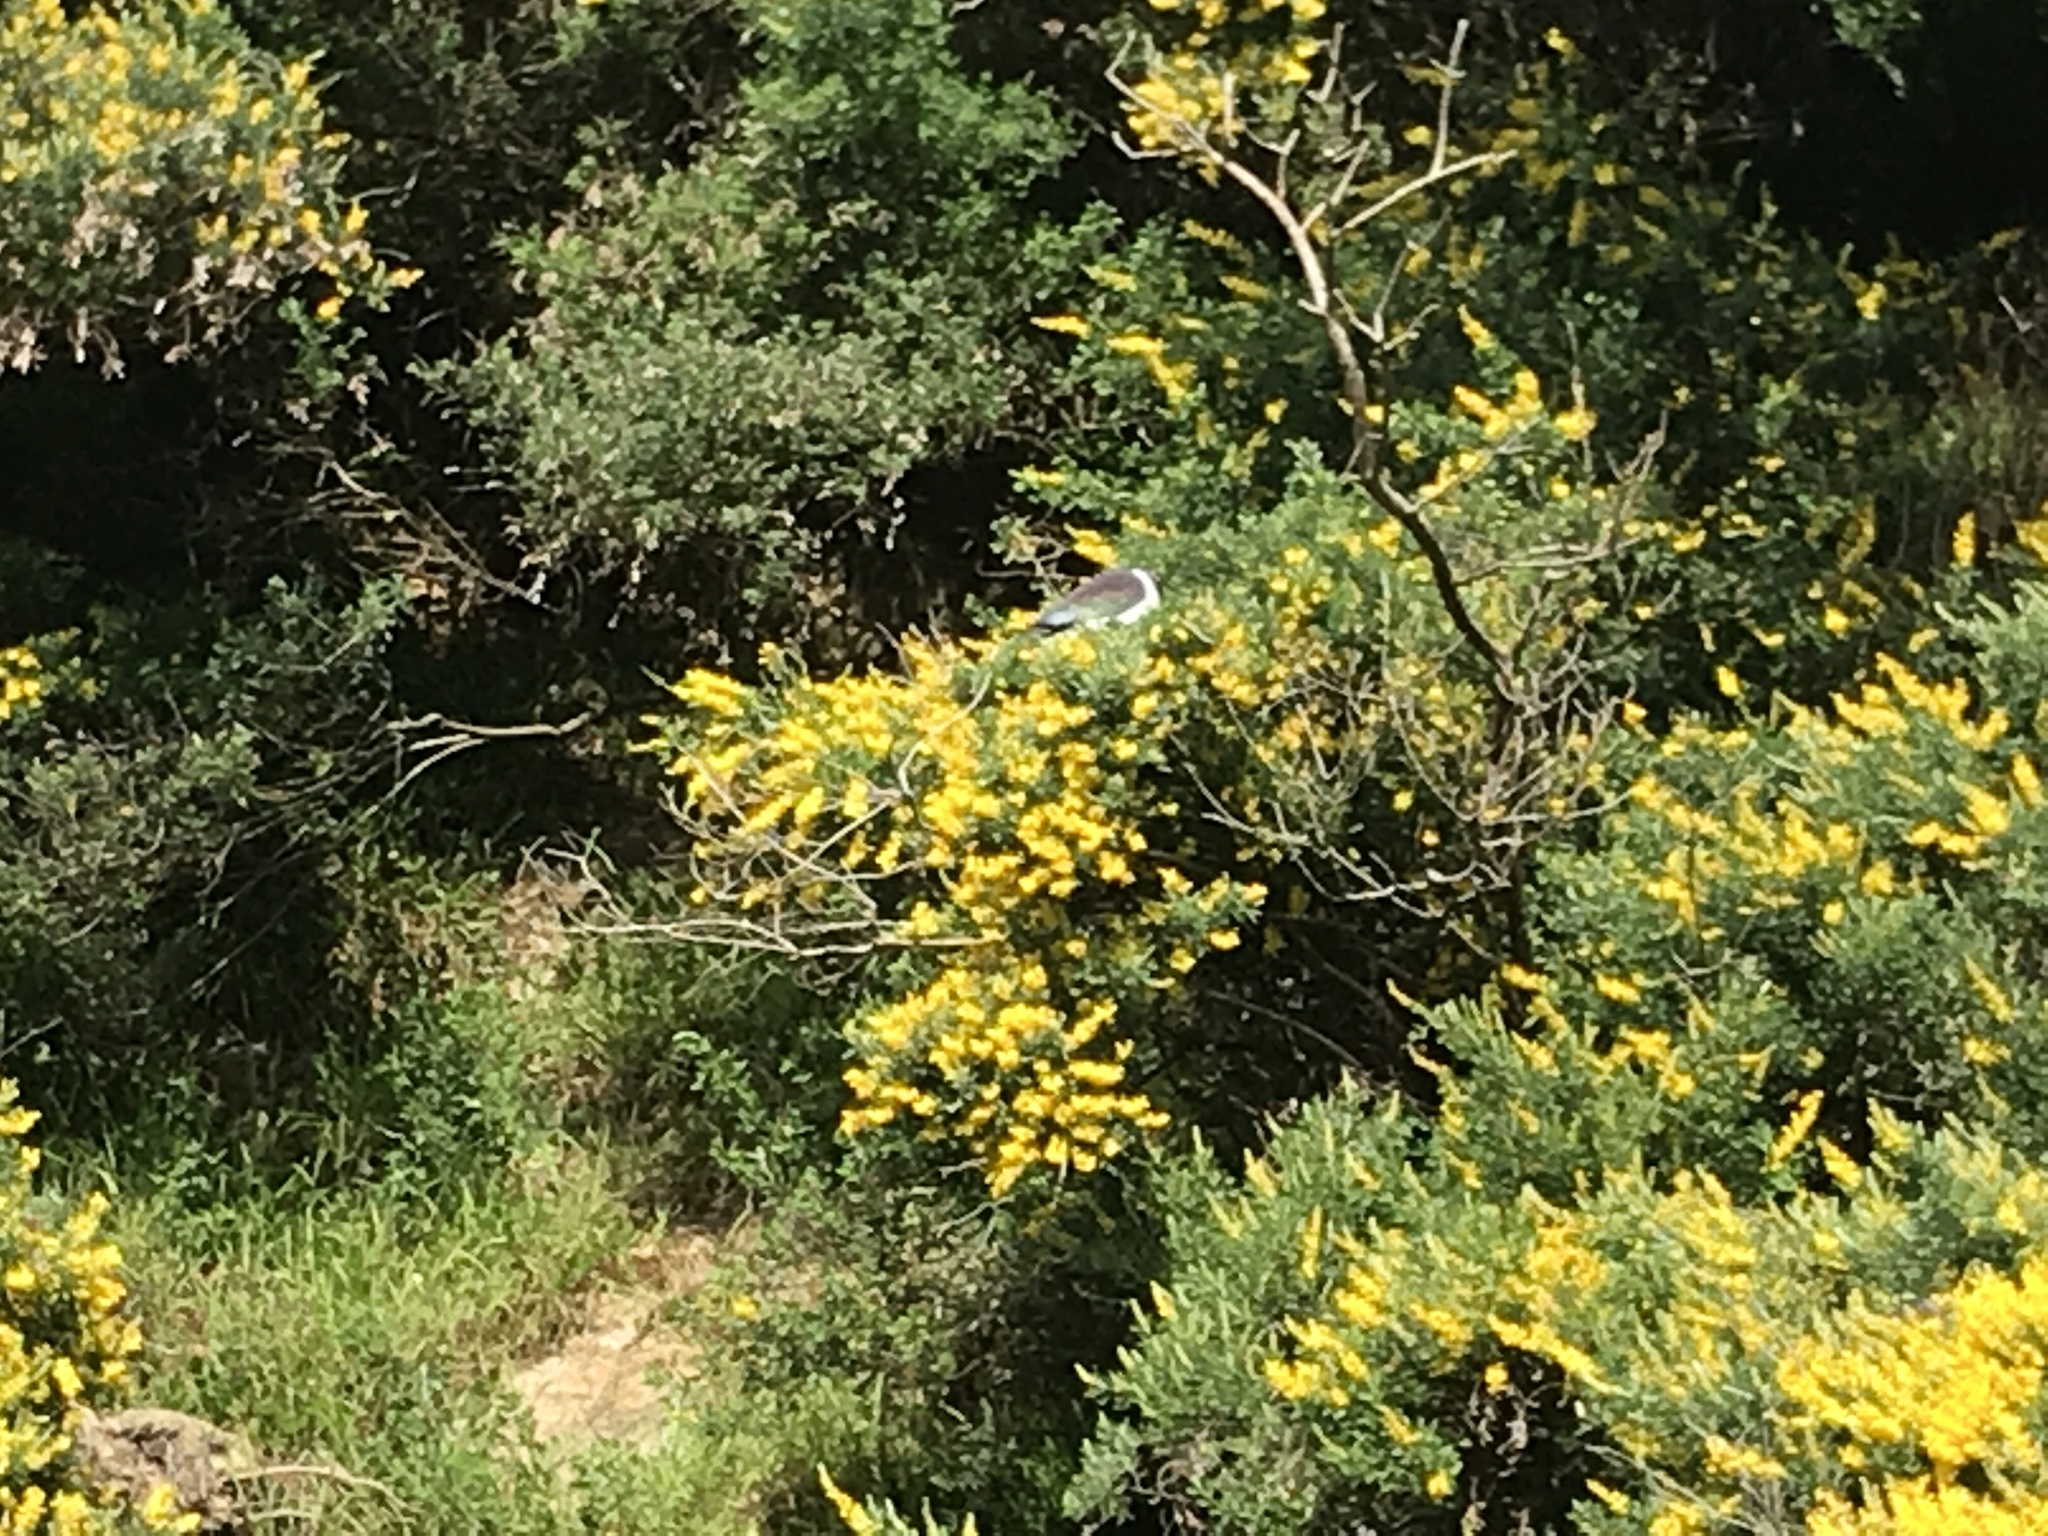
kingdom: Animalia
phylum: Chordata
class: Aves
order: Columbiformes
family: Columbidae
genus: Hemiphaga
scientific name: Hemiphaga novaeseelandiae
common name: New zealand pigeon
